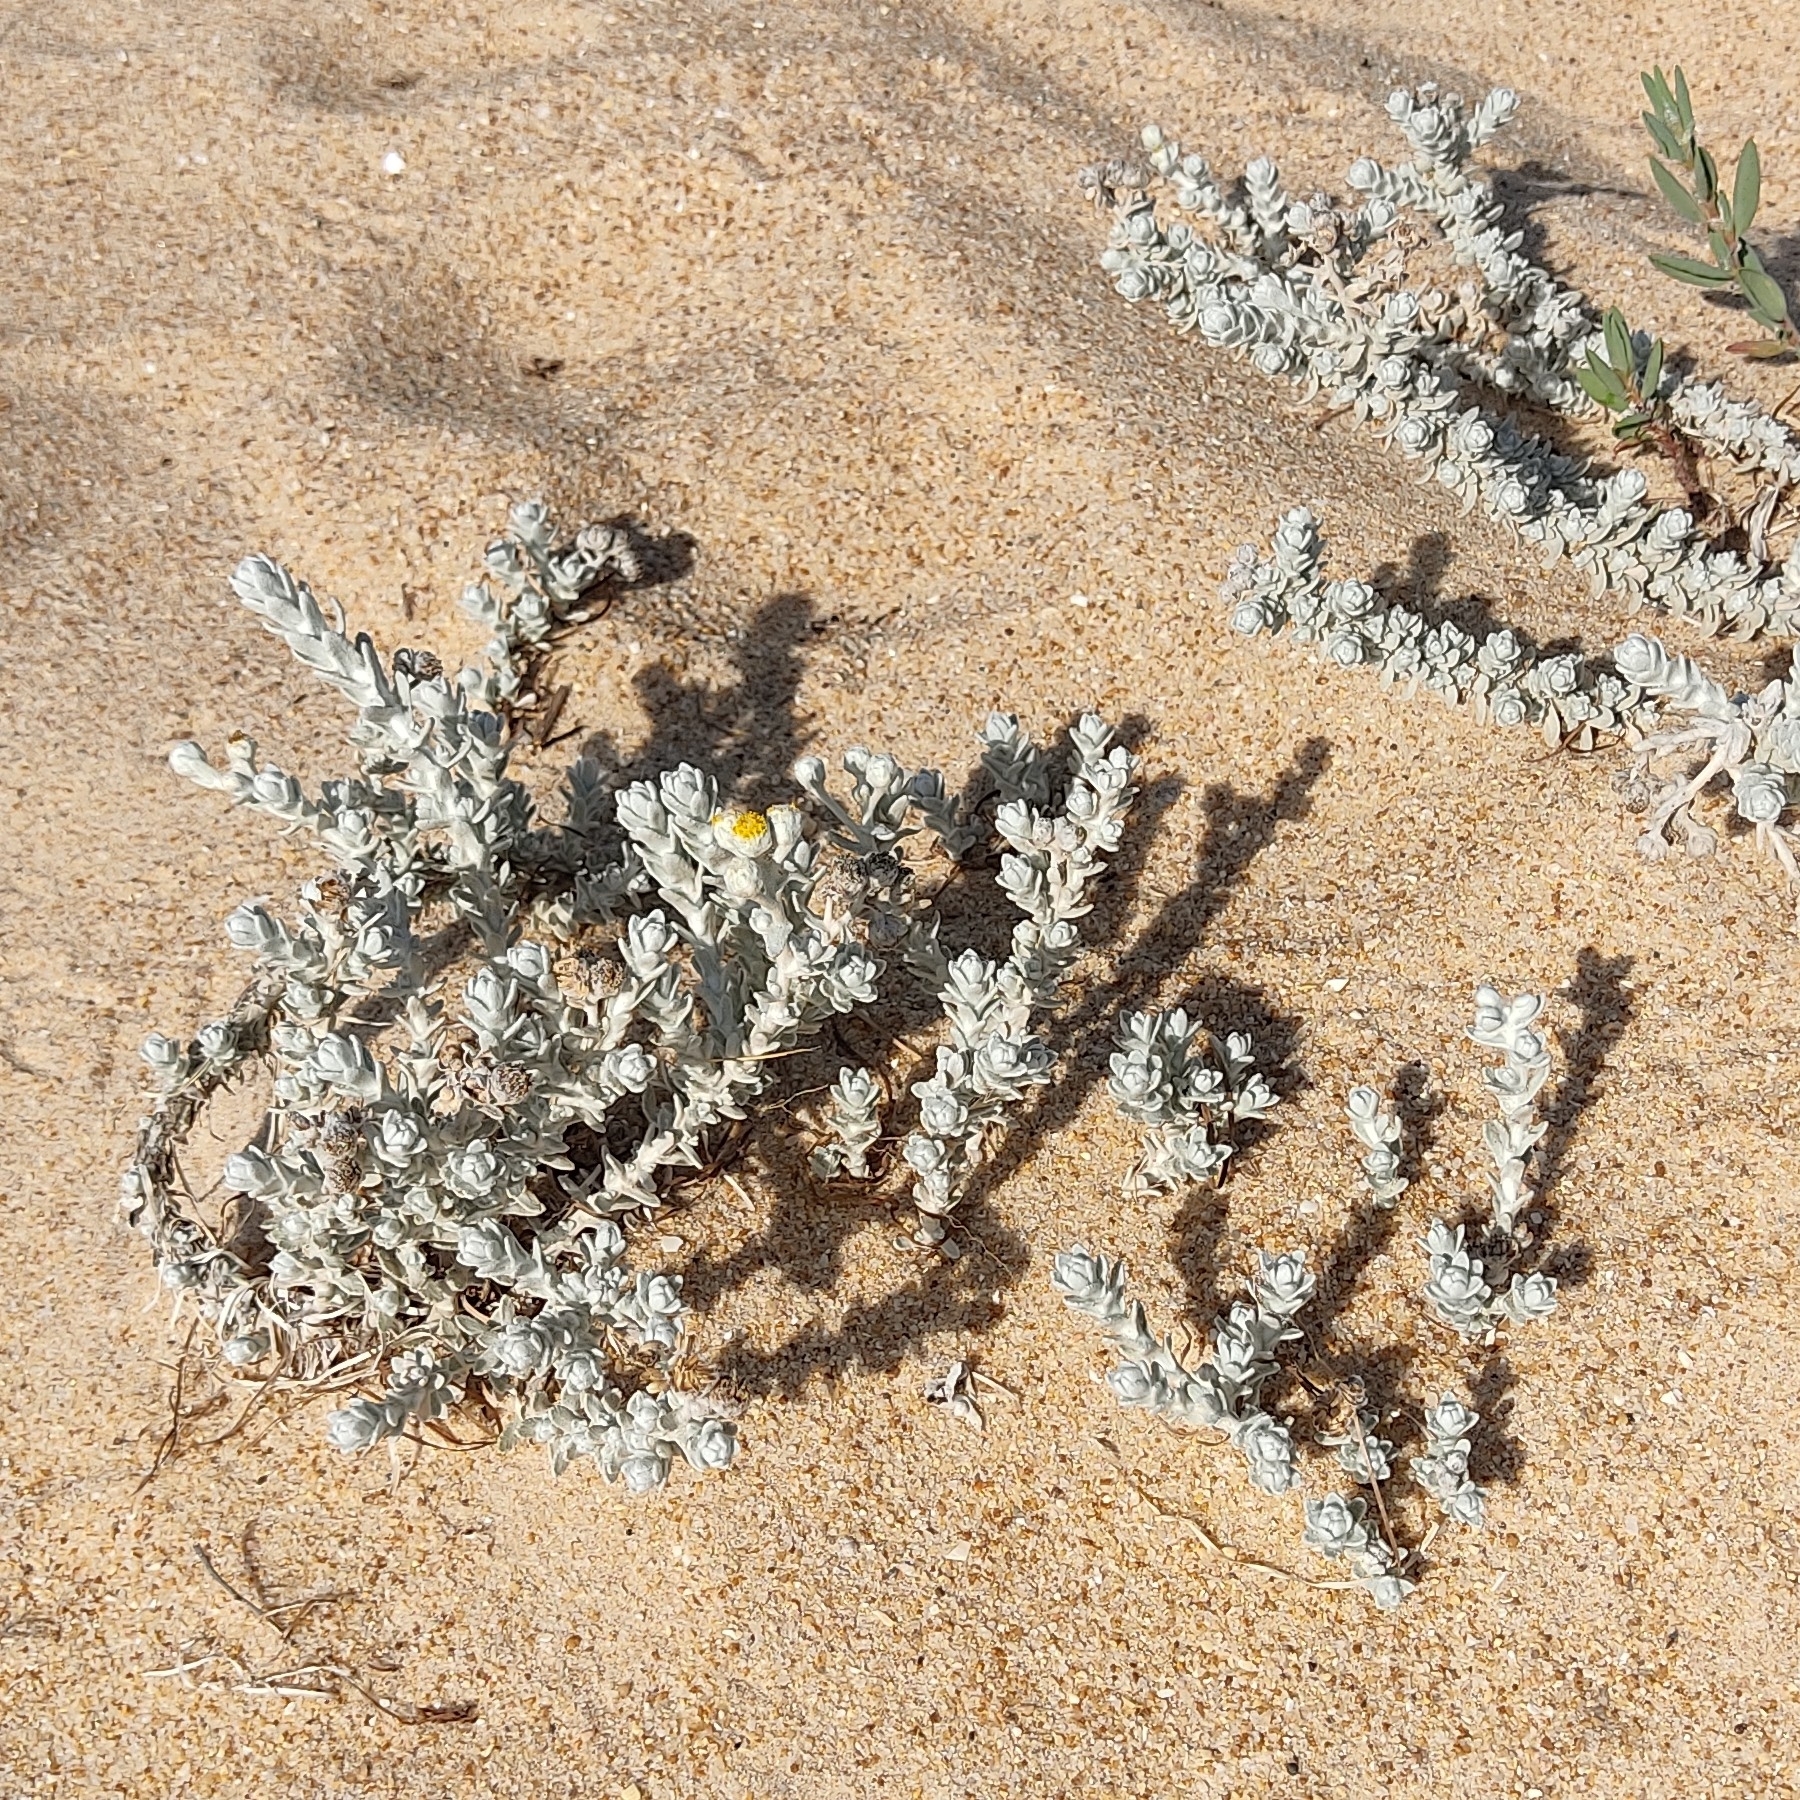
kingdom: Plantae
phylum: Tracheophyta
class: Magnoliopsida
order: Asterales
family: Asteraceae
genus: Achillea
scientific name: Achillea maritima
